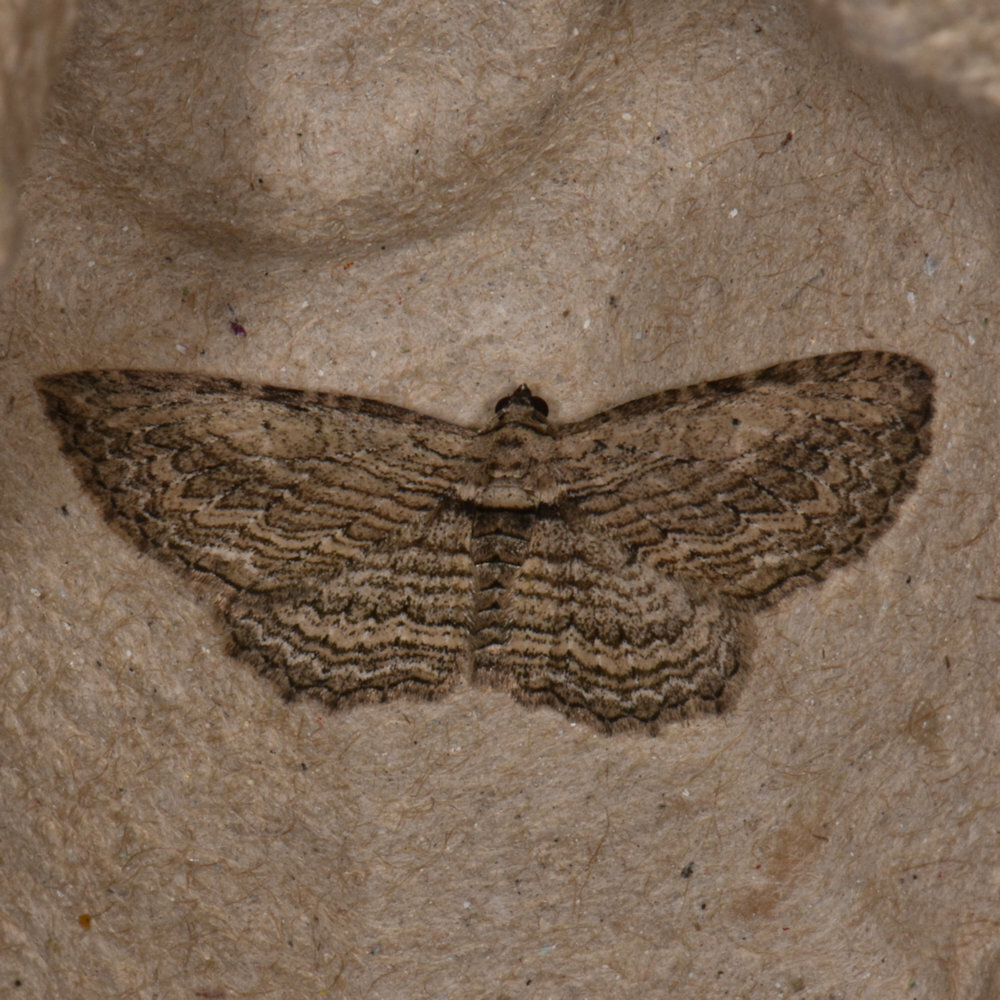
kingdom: Animalia
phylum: Arthropoda
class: Insecta
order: Lepidoptera
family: Geometridae
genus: Horisme
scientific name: Horisme intestinata
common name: Brown bark carpet
